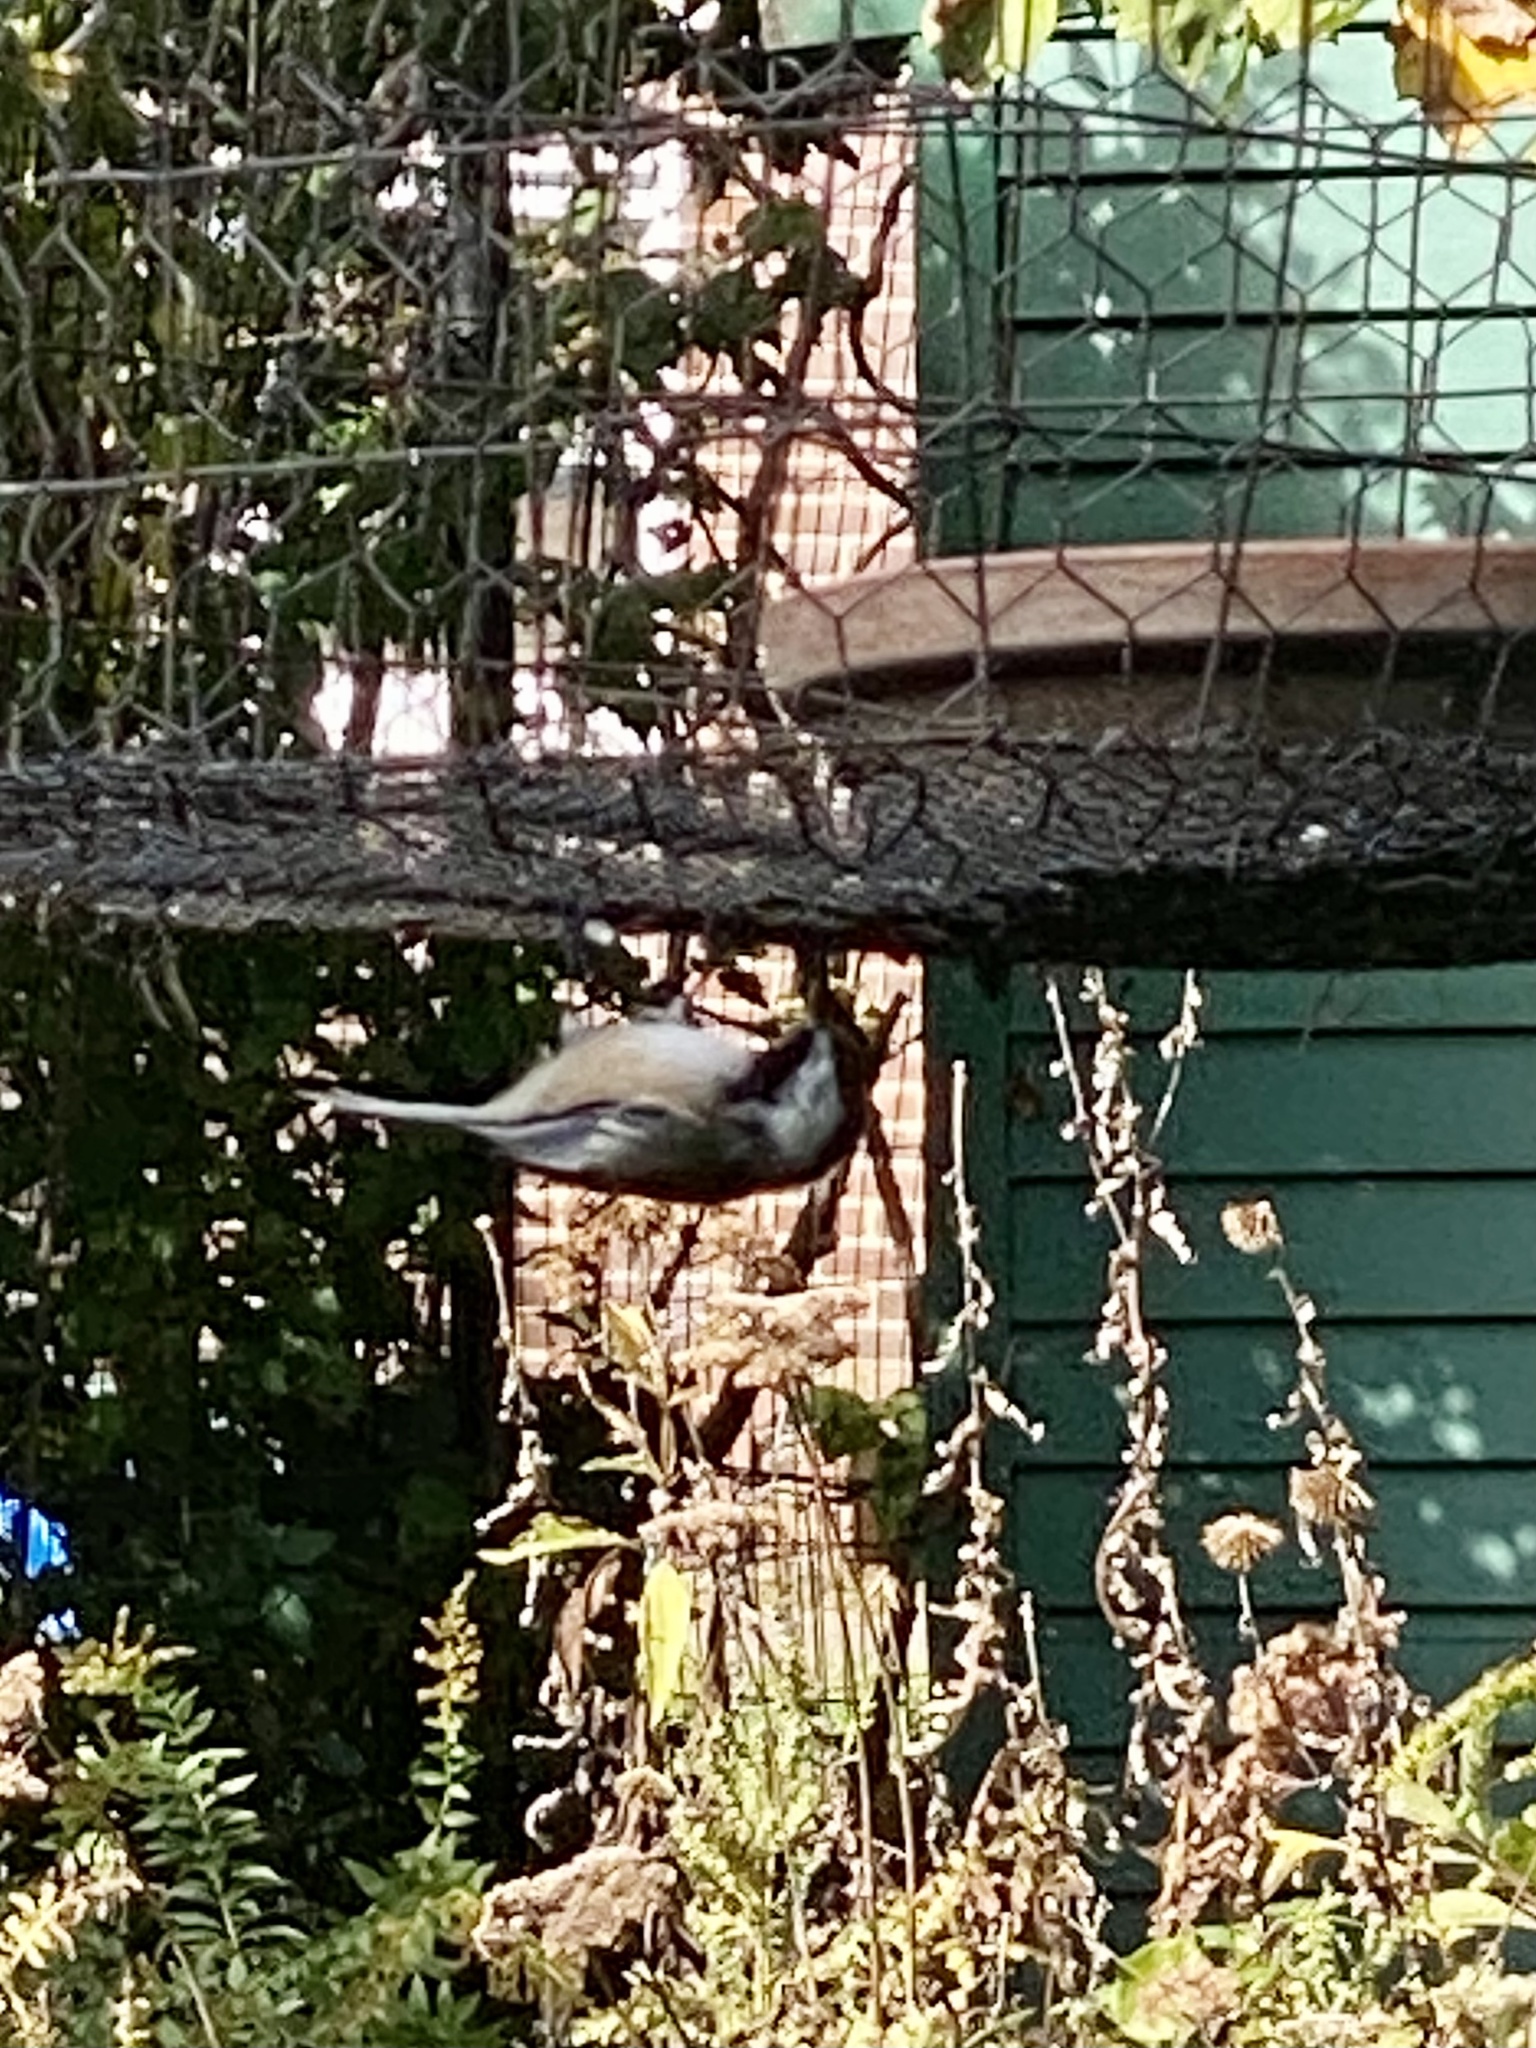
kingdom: Animalia
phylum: Chordata
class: Aves
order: Passeriformes
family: Paridae
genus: Poecile
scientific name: Poecile atricapillus
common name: Black-capped chickadee
